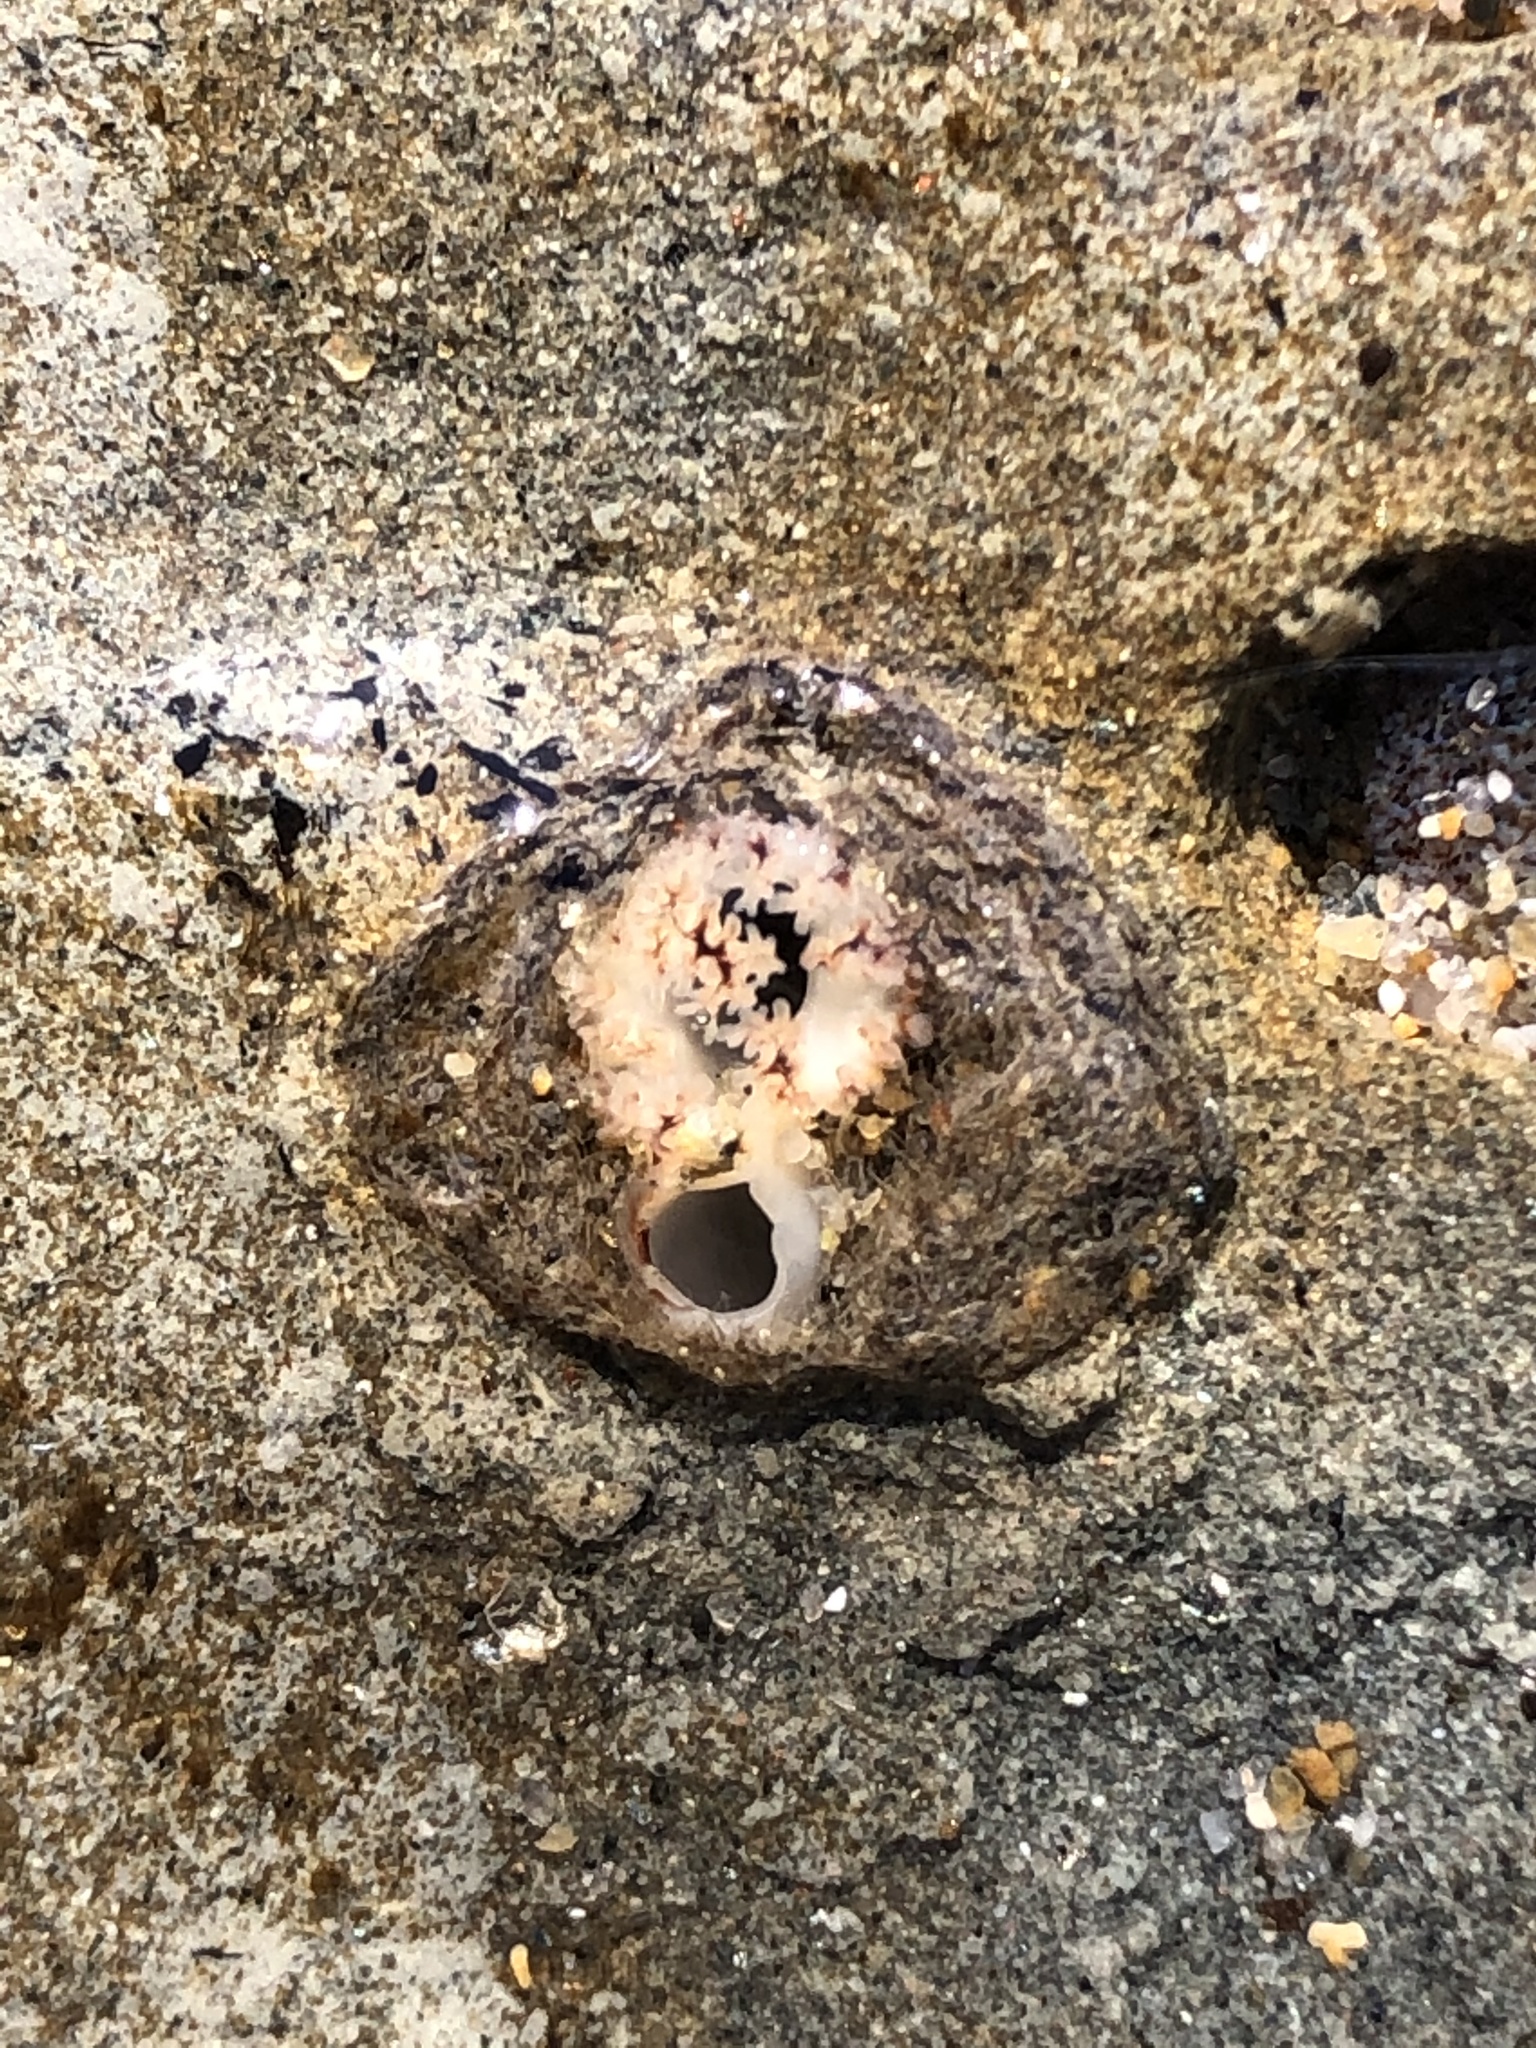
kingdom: Animalia
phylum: Mollusca
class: Bivalvia
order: Myida
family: Pholadidae
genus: Parapholas
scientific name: Parapholas californica
